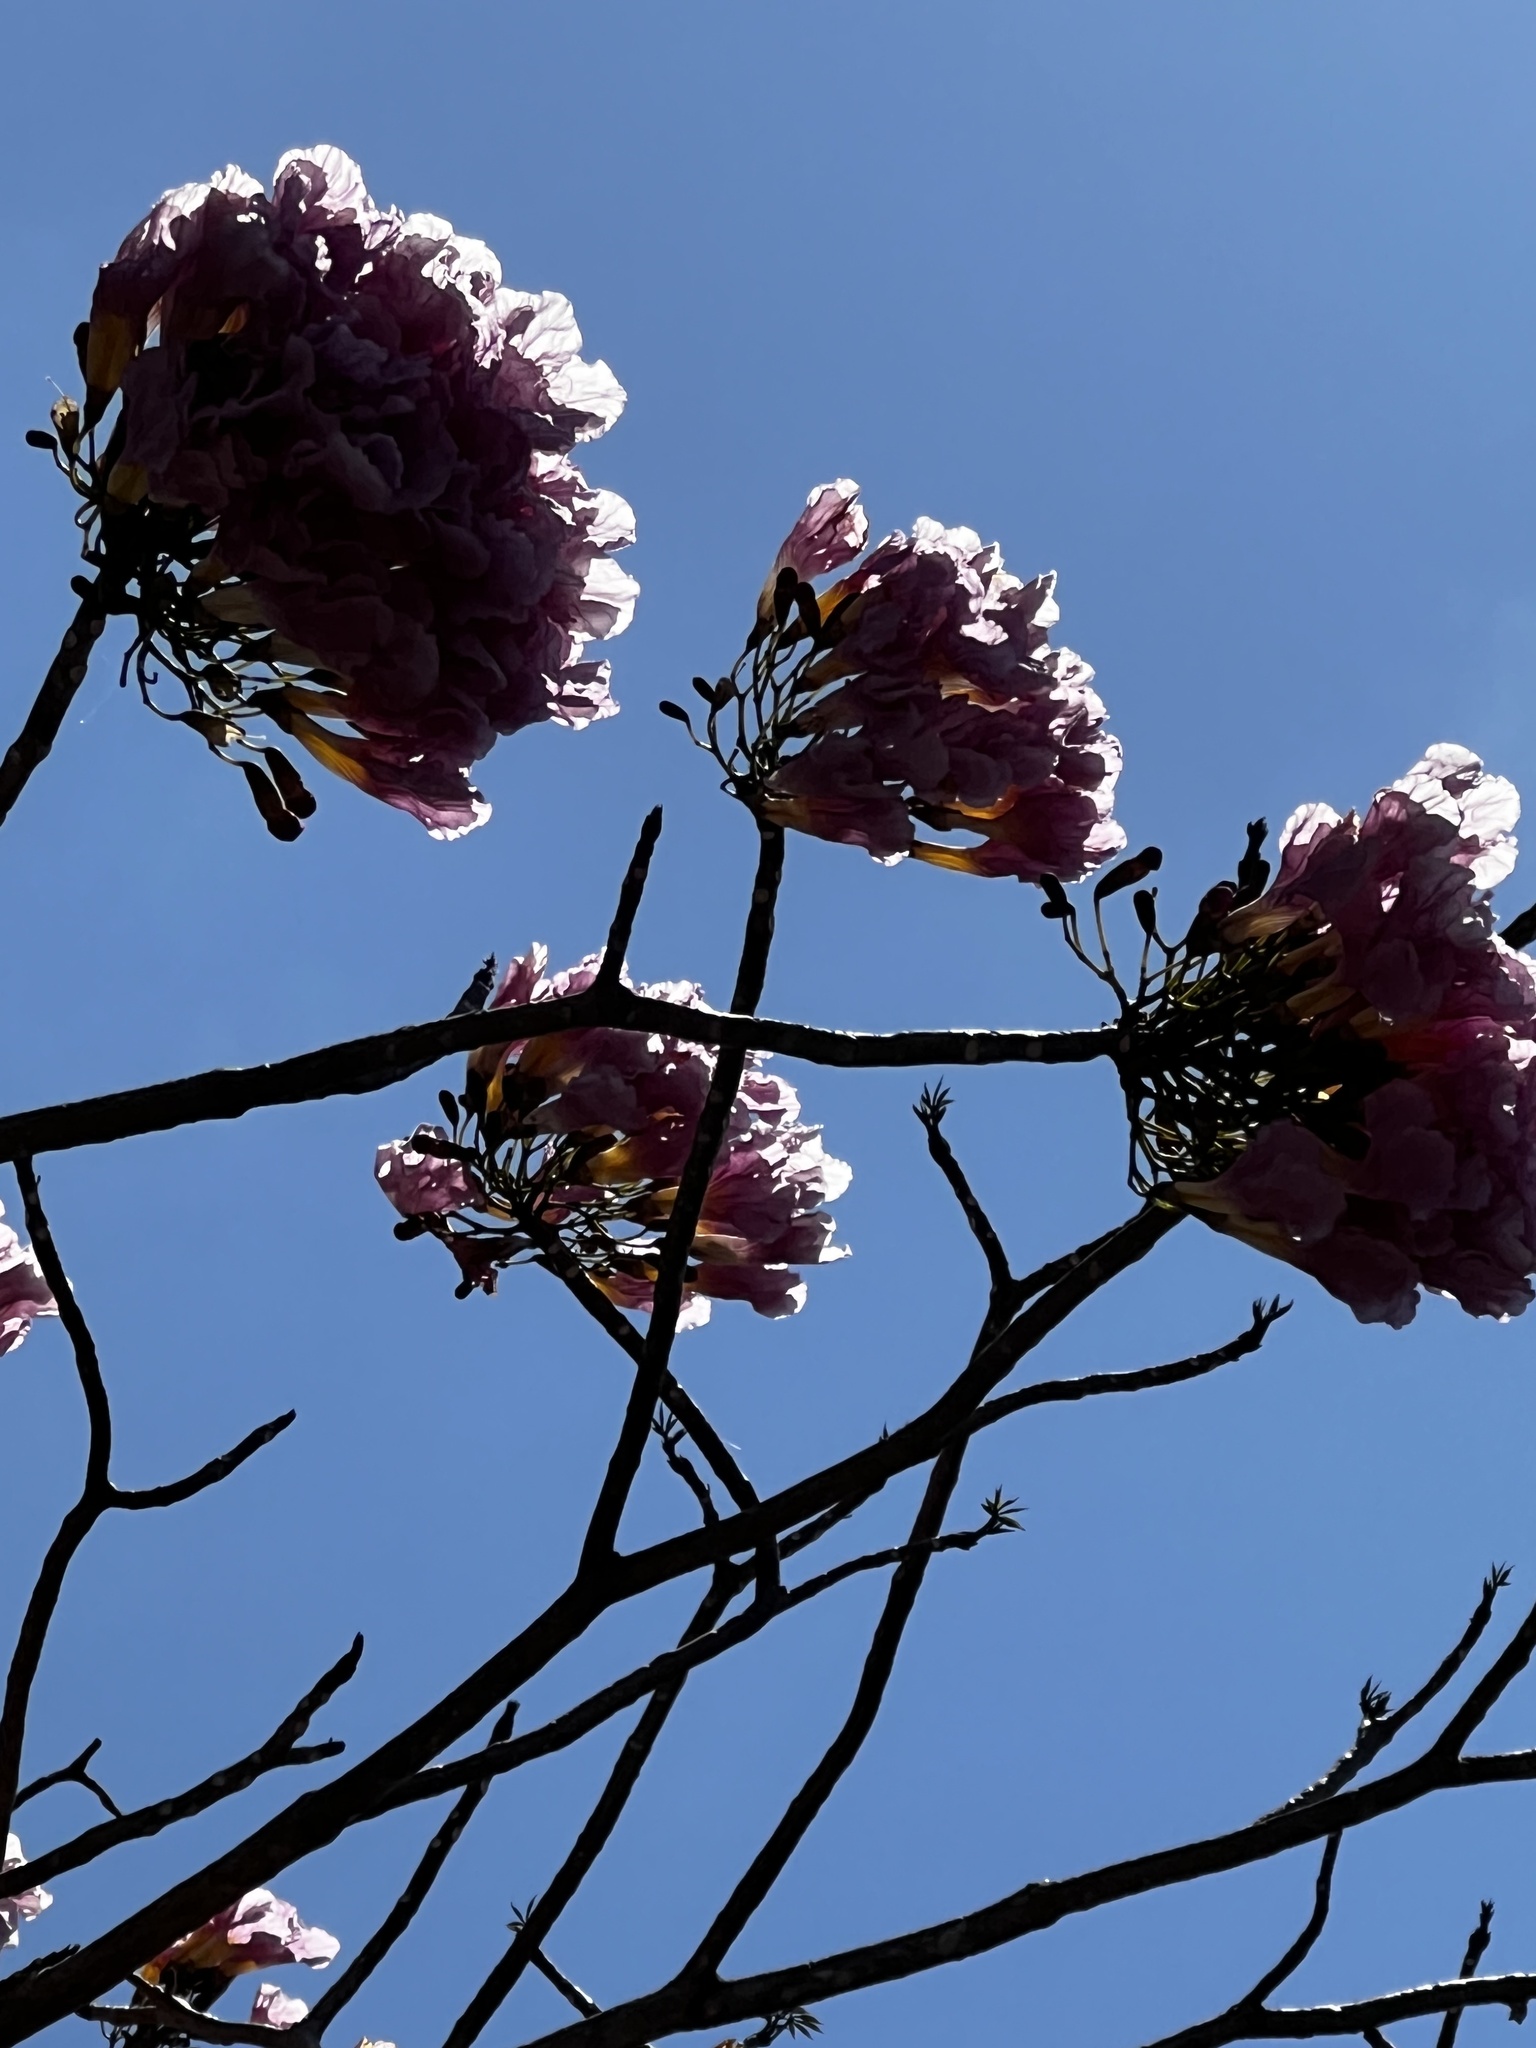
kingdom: Plantae
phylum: Tracheophyta
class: Magnoliopsida
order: Lamiales
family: Bignoniaceae
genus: Tabebuia
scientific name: Tabebuia rosea
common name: Pink poui
